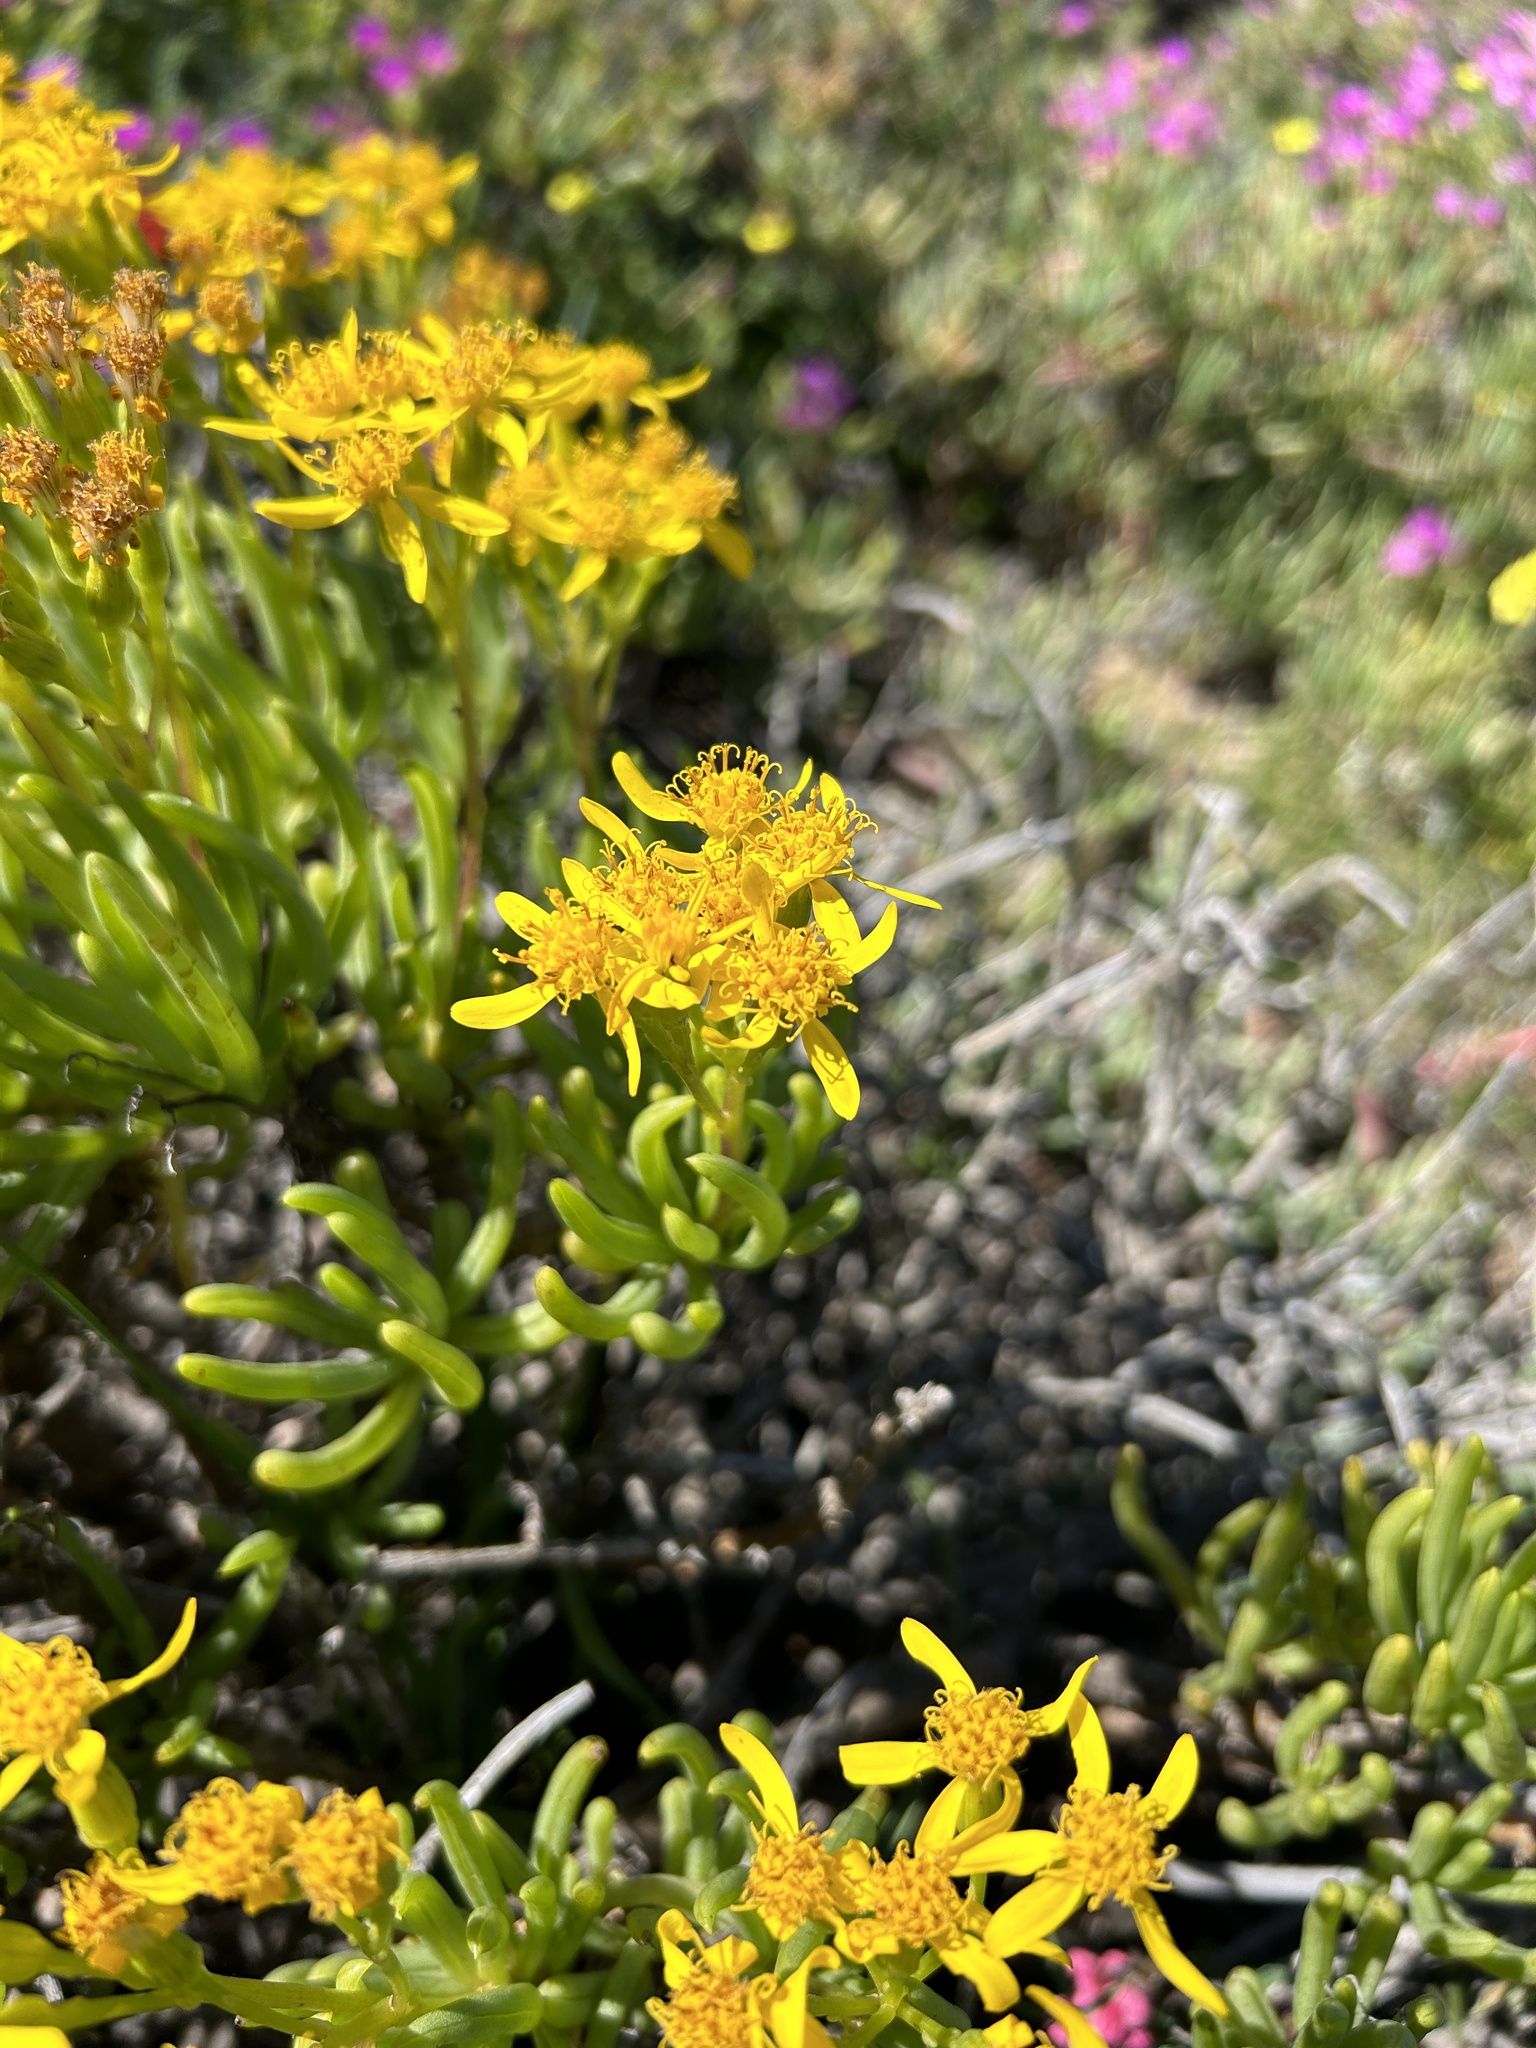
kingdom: Plantae
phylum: Tracheophyta
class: Magnoliopsida
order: Asterales
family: Asteraceae
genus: Curio
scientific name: Curio corymbifer
